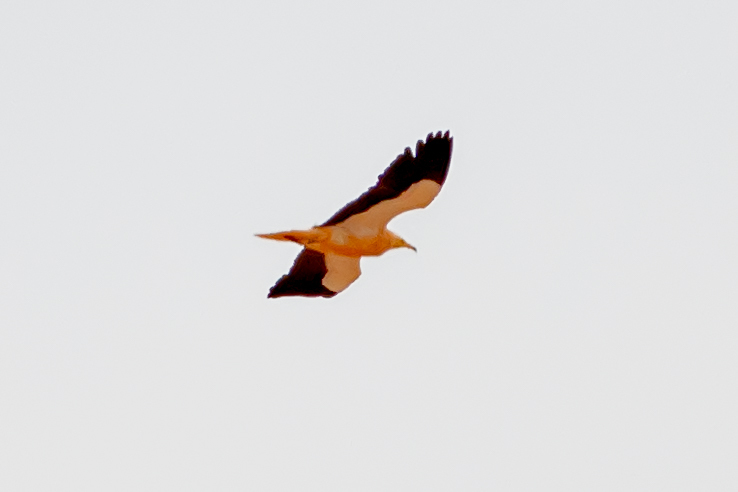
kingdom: Animalia
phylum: Chordata
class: Aves
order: Accipitriformes
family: Accipitridae
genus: Neophron
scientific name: Neophron percnopterus
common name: Egyptian vulture
